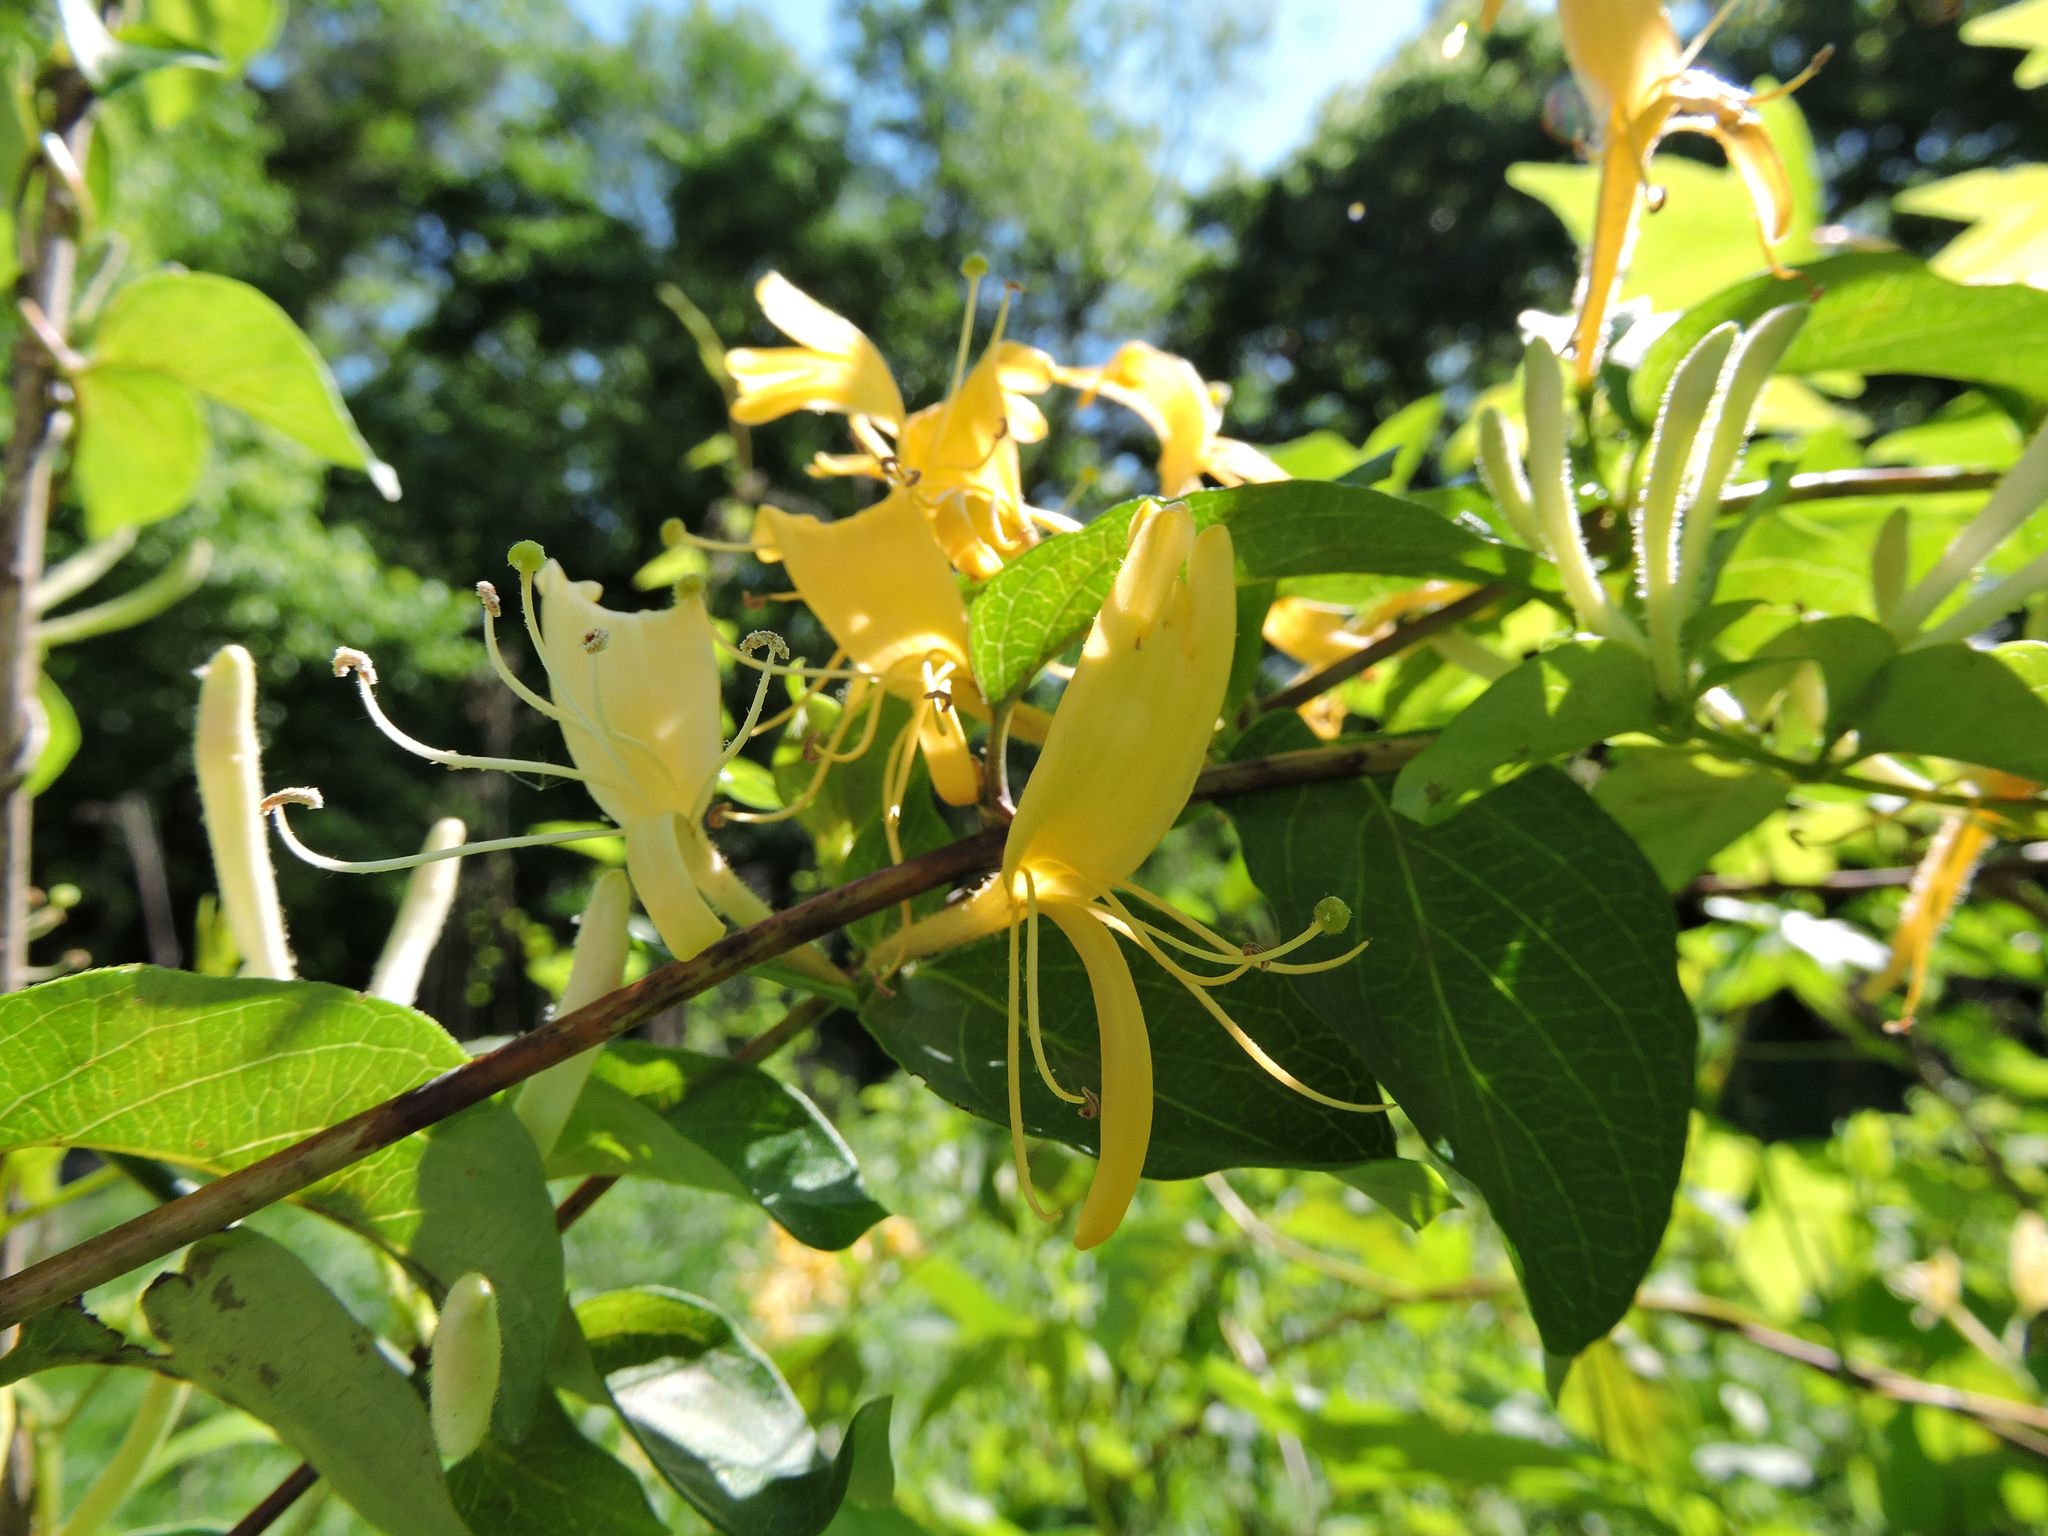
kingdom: Plantae
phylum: Tracheophyta
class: Magnoliopsida
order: Dipsacales
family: Caprifoliaceae
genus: Lonicera
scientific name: Lonicera japonica
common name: Japanese honeysuckle
